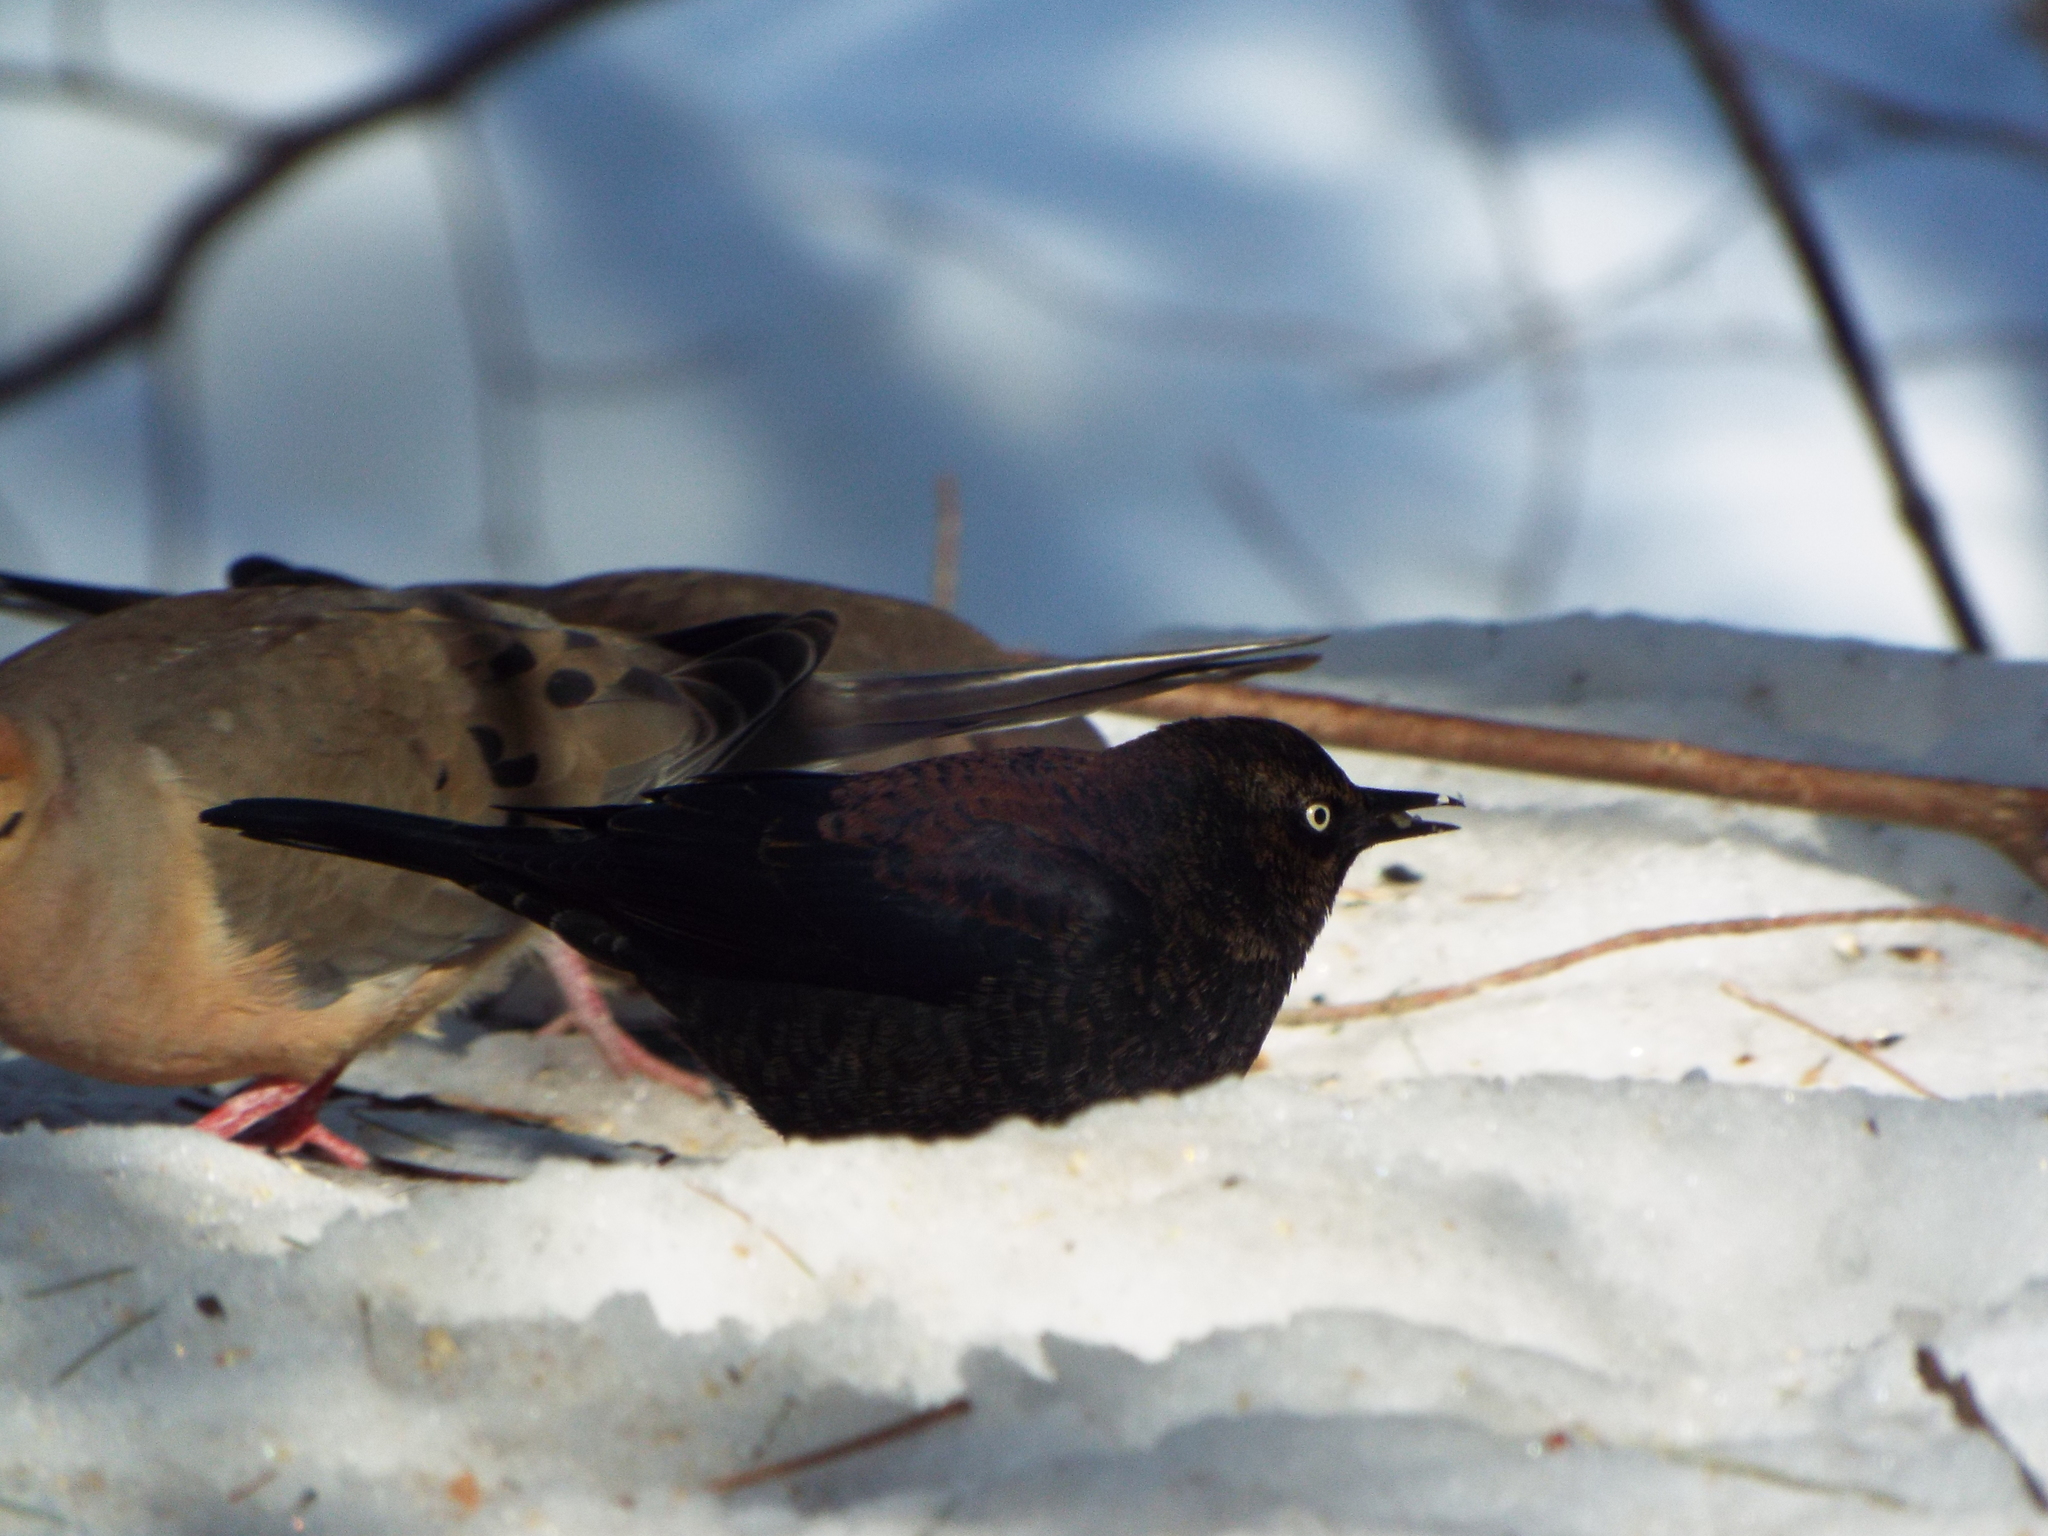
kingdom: Animalia
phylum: Chordata
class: Aves
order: Passeriformes
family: Icteridae
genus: Euphagus
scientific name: Euphagus carolinus
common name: Rusty blackbird
